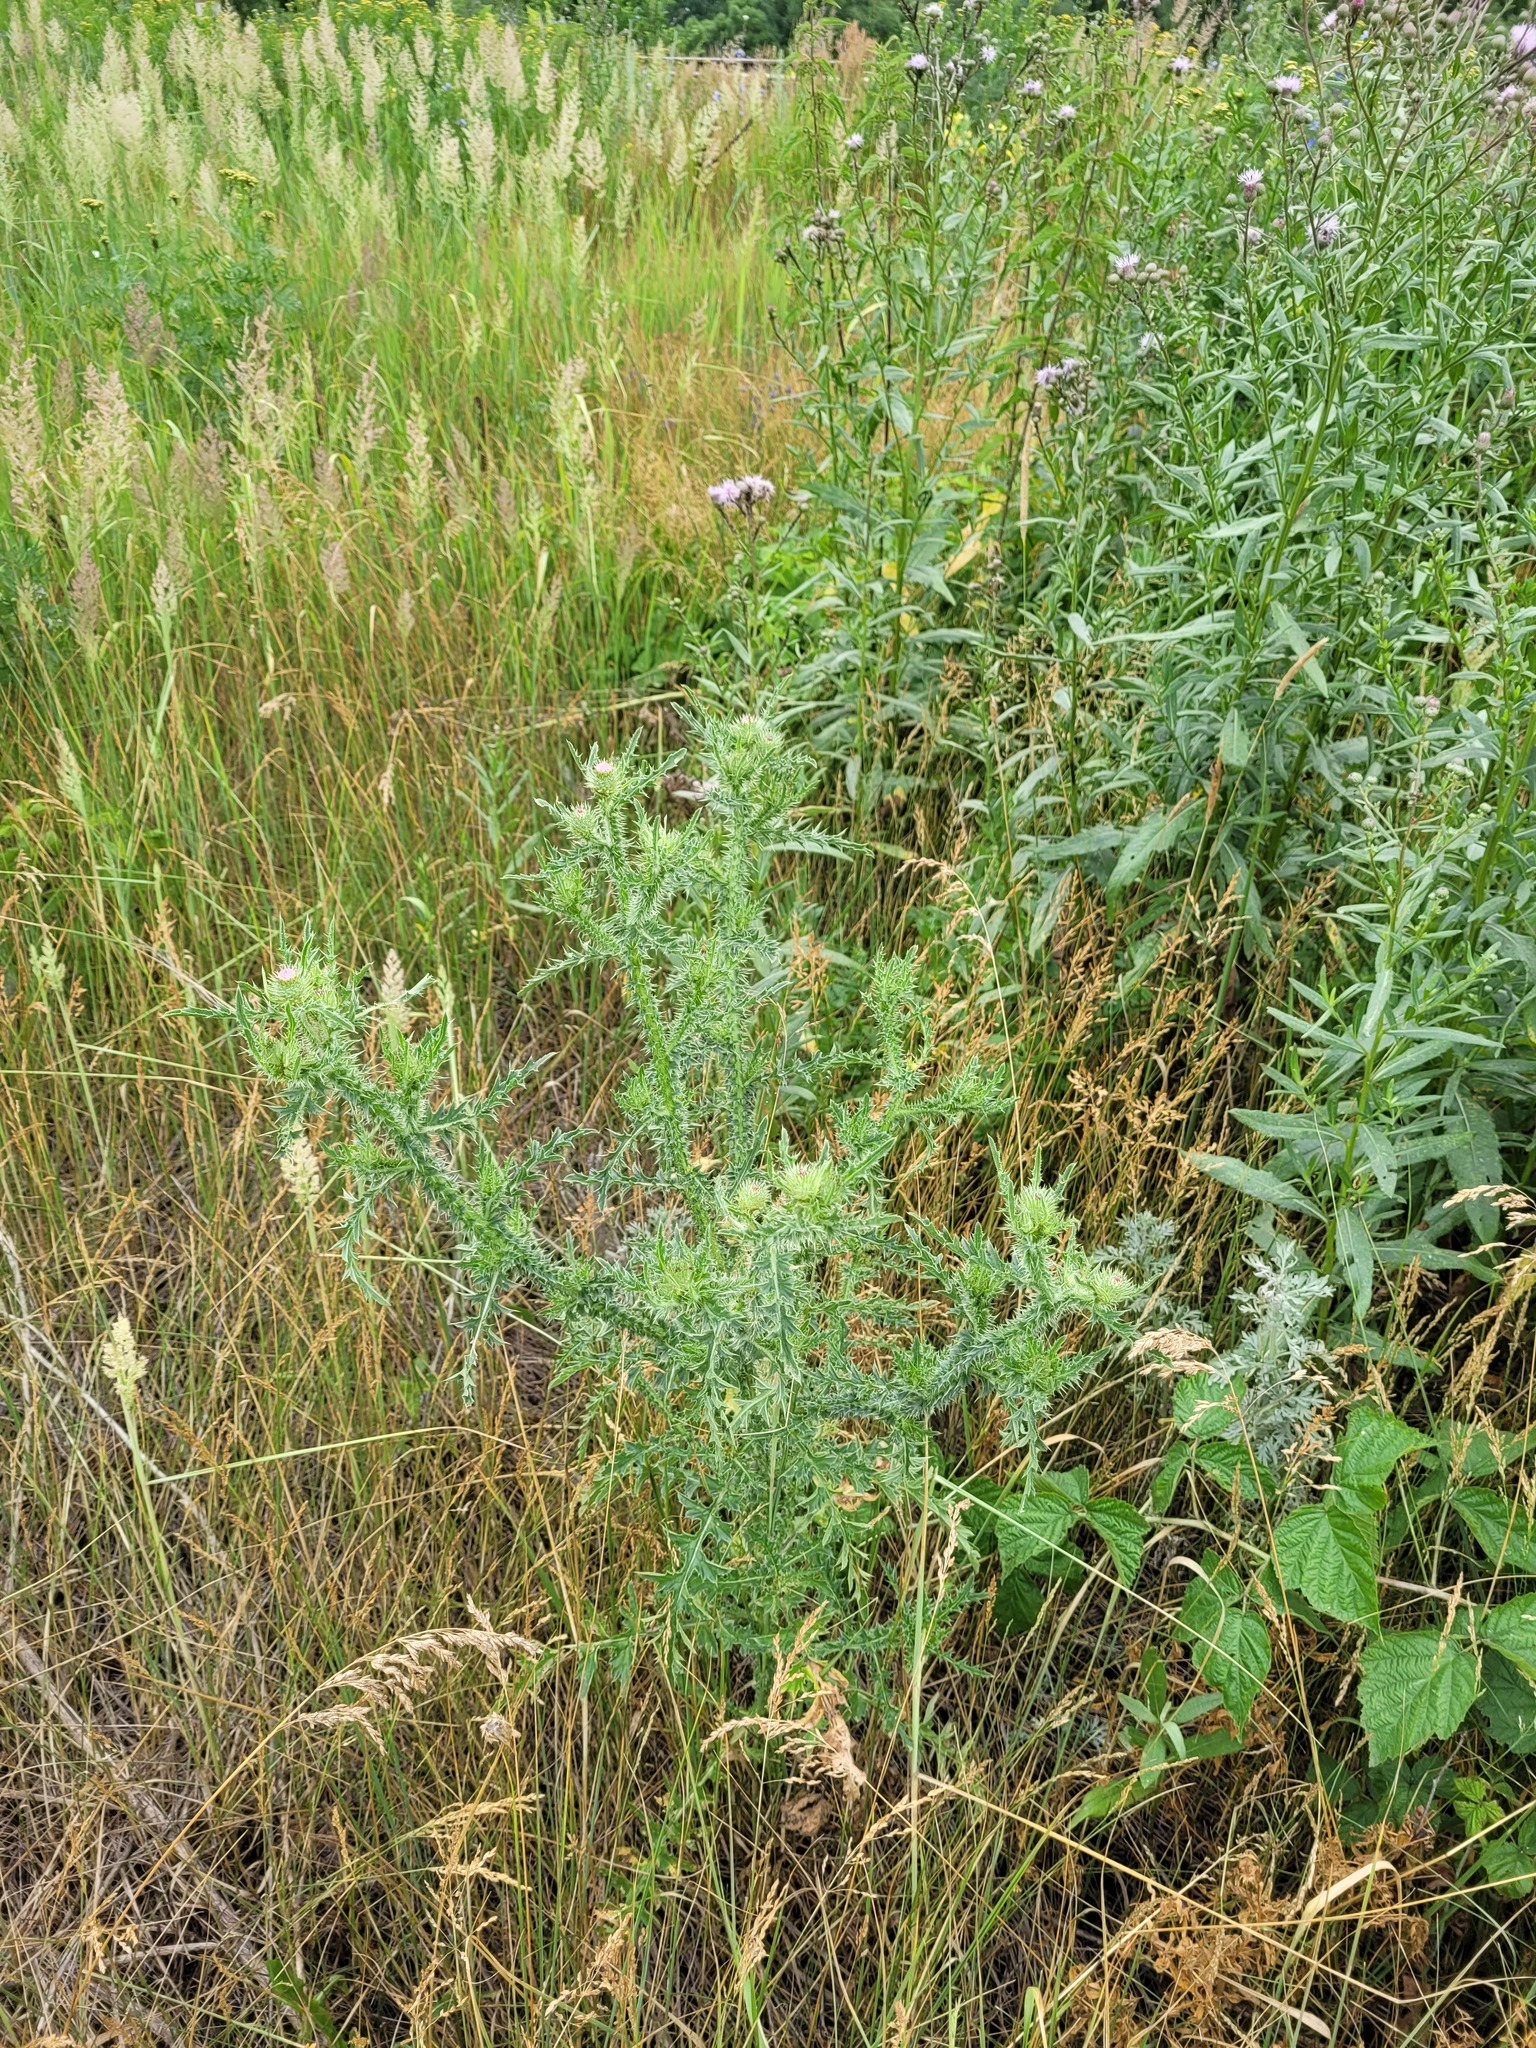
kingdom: Plantae
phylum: Tracheophyta
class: Magnoliopsida
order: Asterales
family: Asteraceae
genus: Carduus
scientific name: Carduus acanthoides
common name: Plumeless thistle
